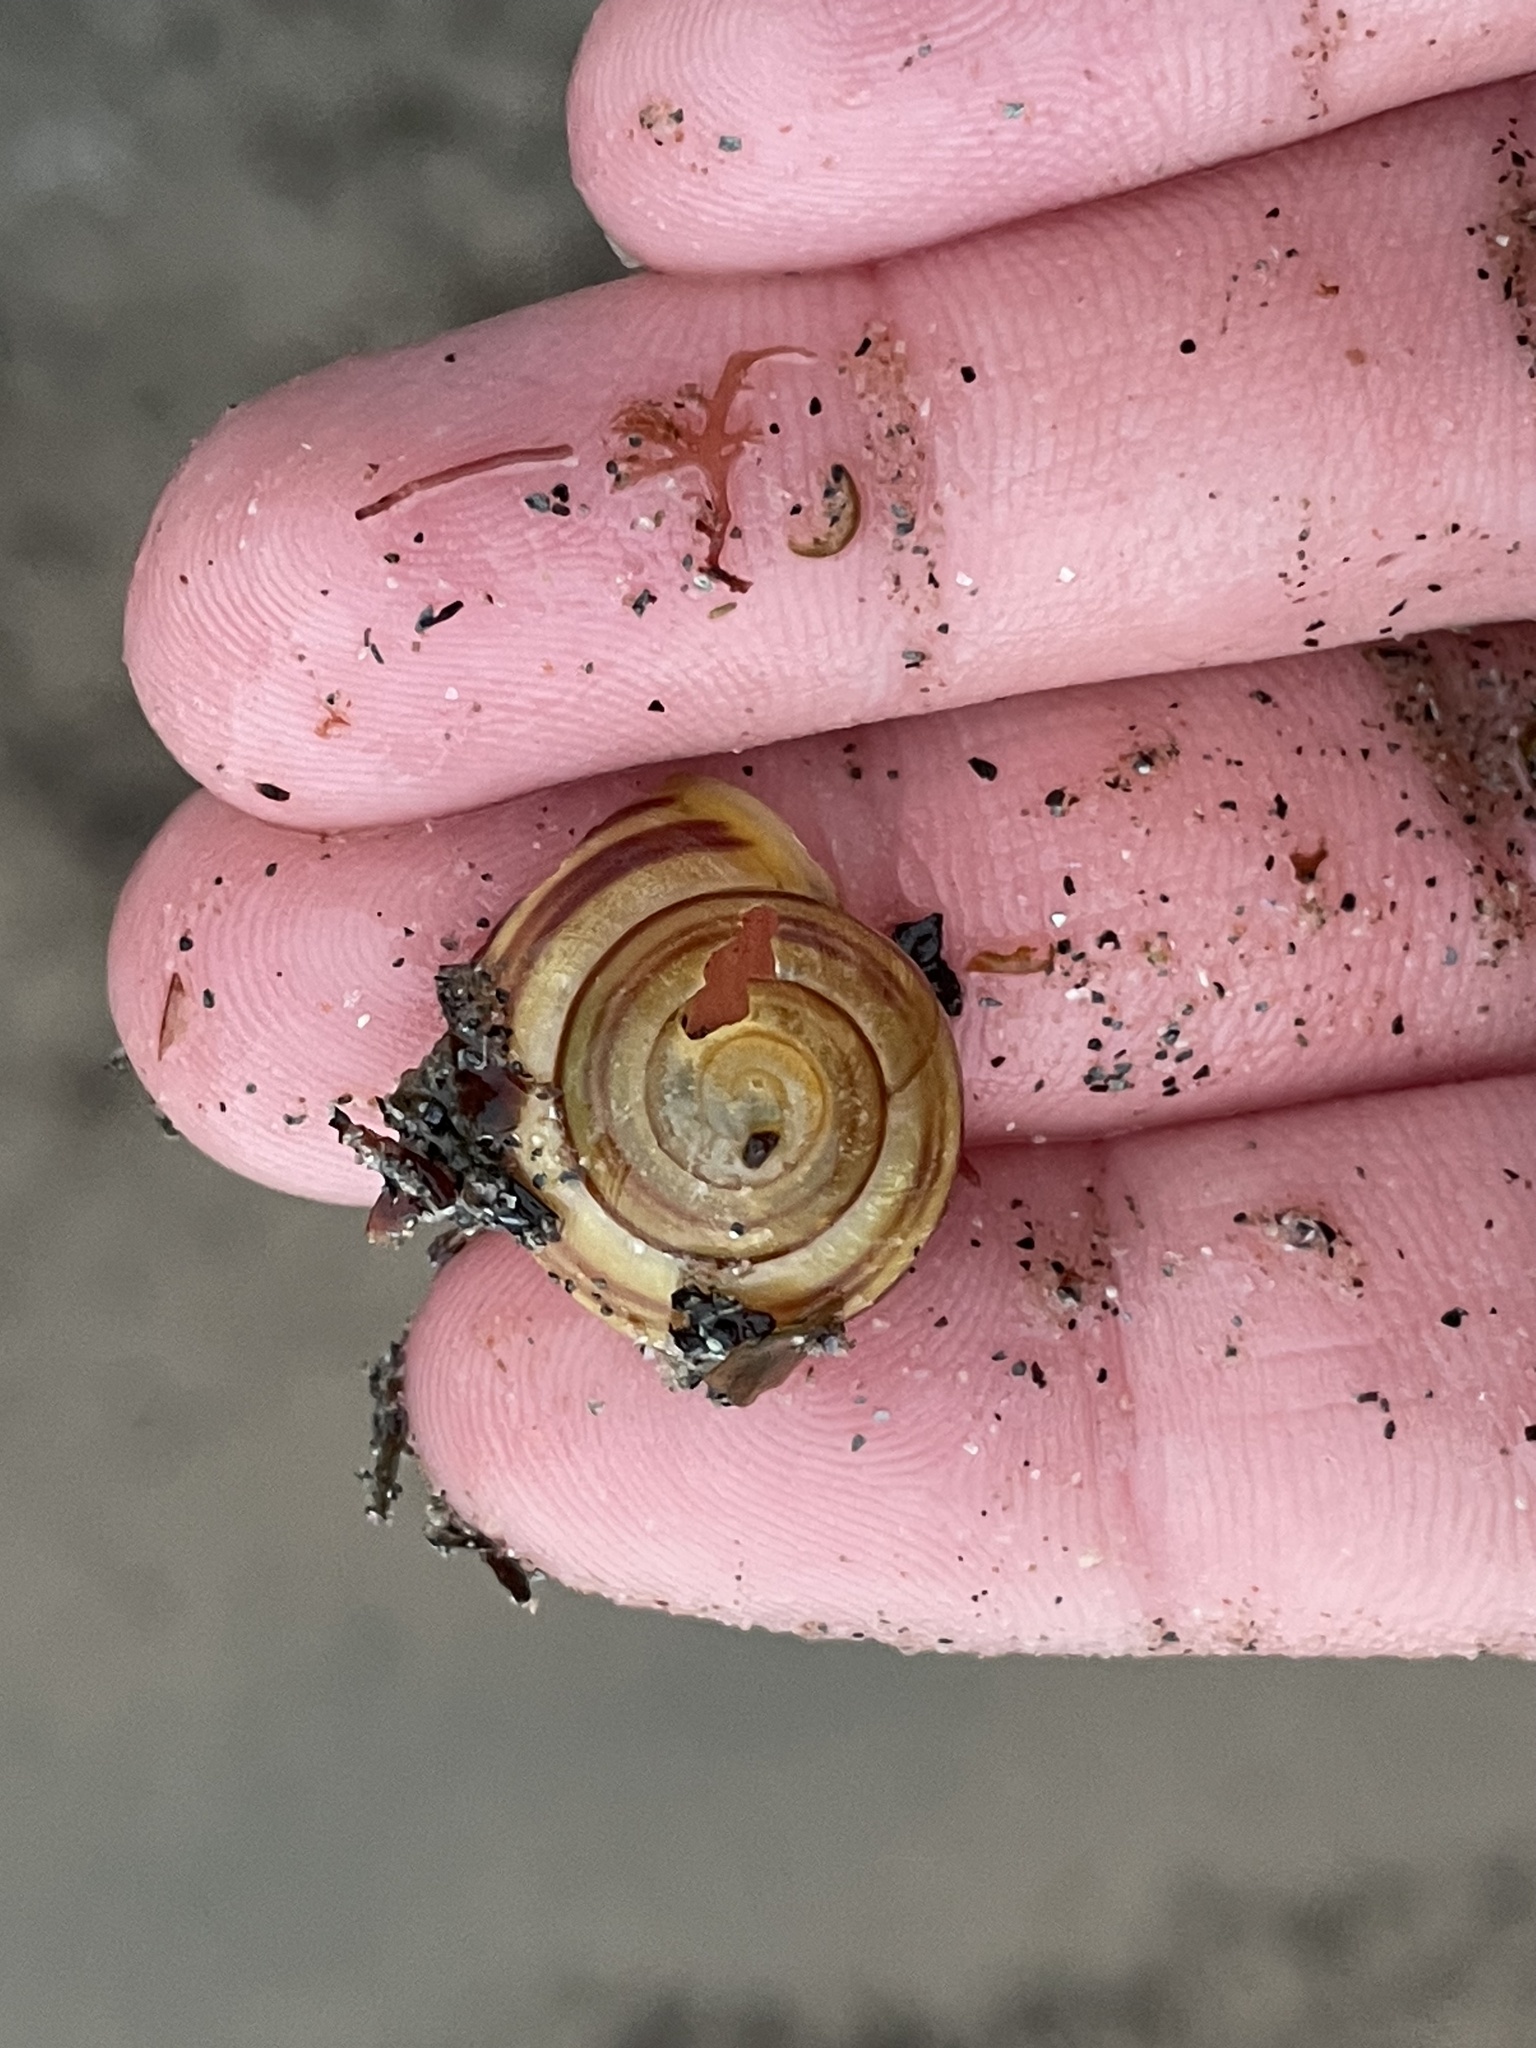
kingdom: Animalia
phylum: Mollusca
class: Gastropoda
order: Stylommatophora
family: Helicidae
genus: Cepaea
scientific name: Cepaea hortensis
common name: White-lip gardensnail
